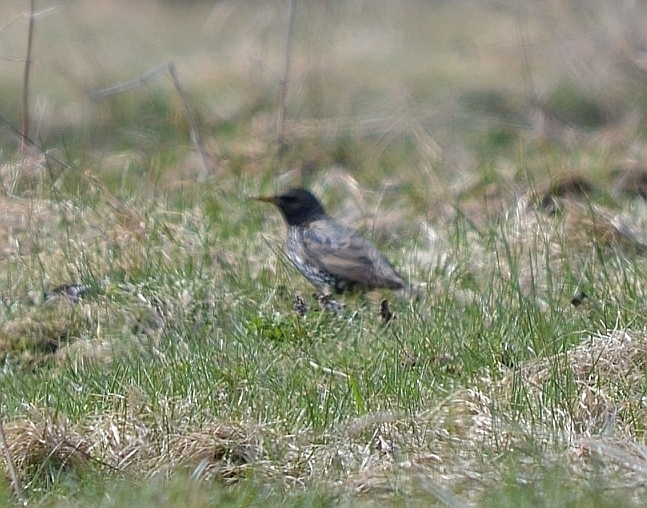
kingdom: Animalia
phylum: Chordata
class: Aves
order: Passeriformes
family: Sturnidae
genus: Sturnus
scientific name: Sturnus vulgaris
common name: Common starling
